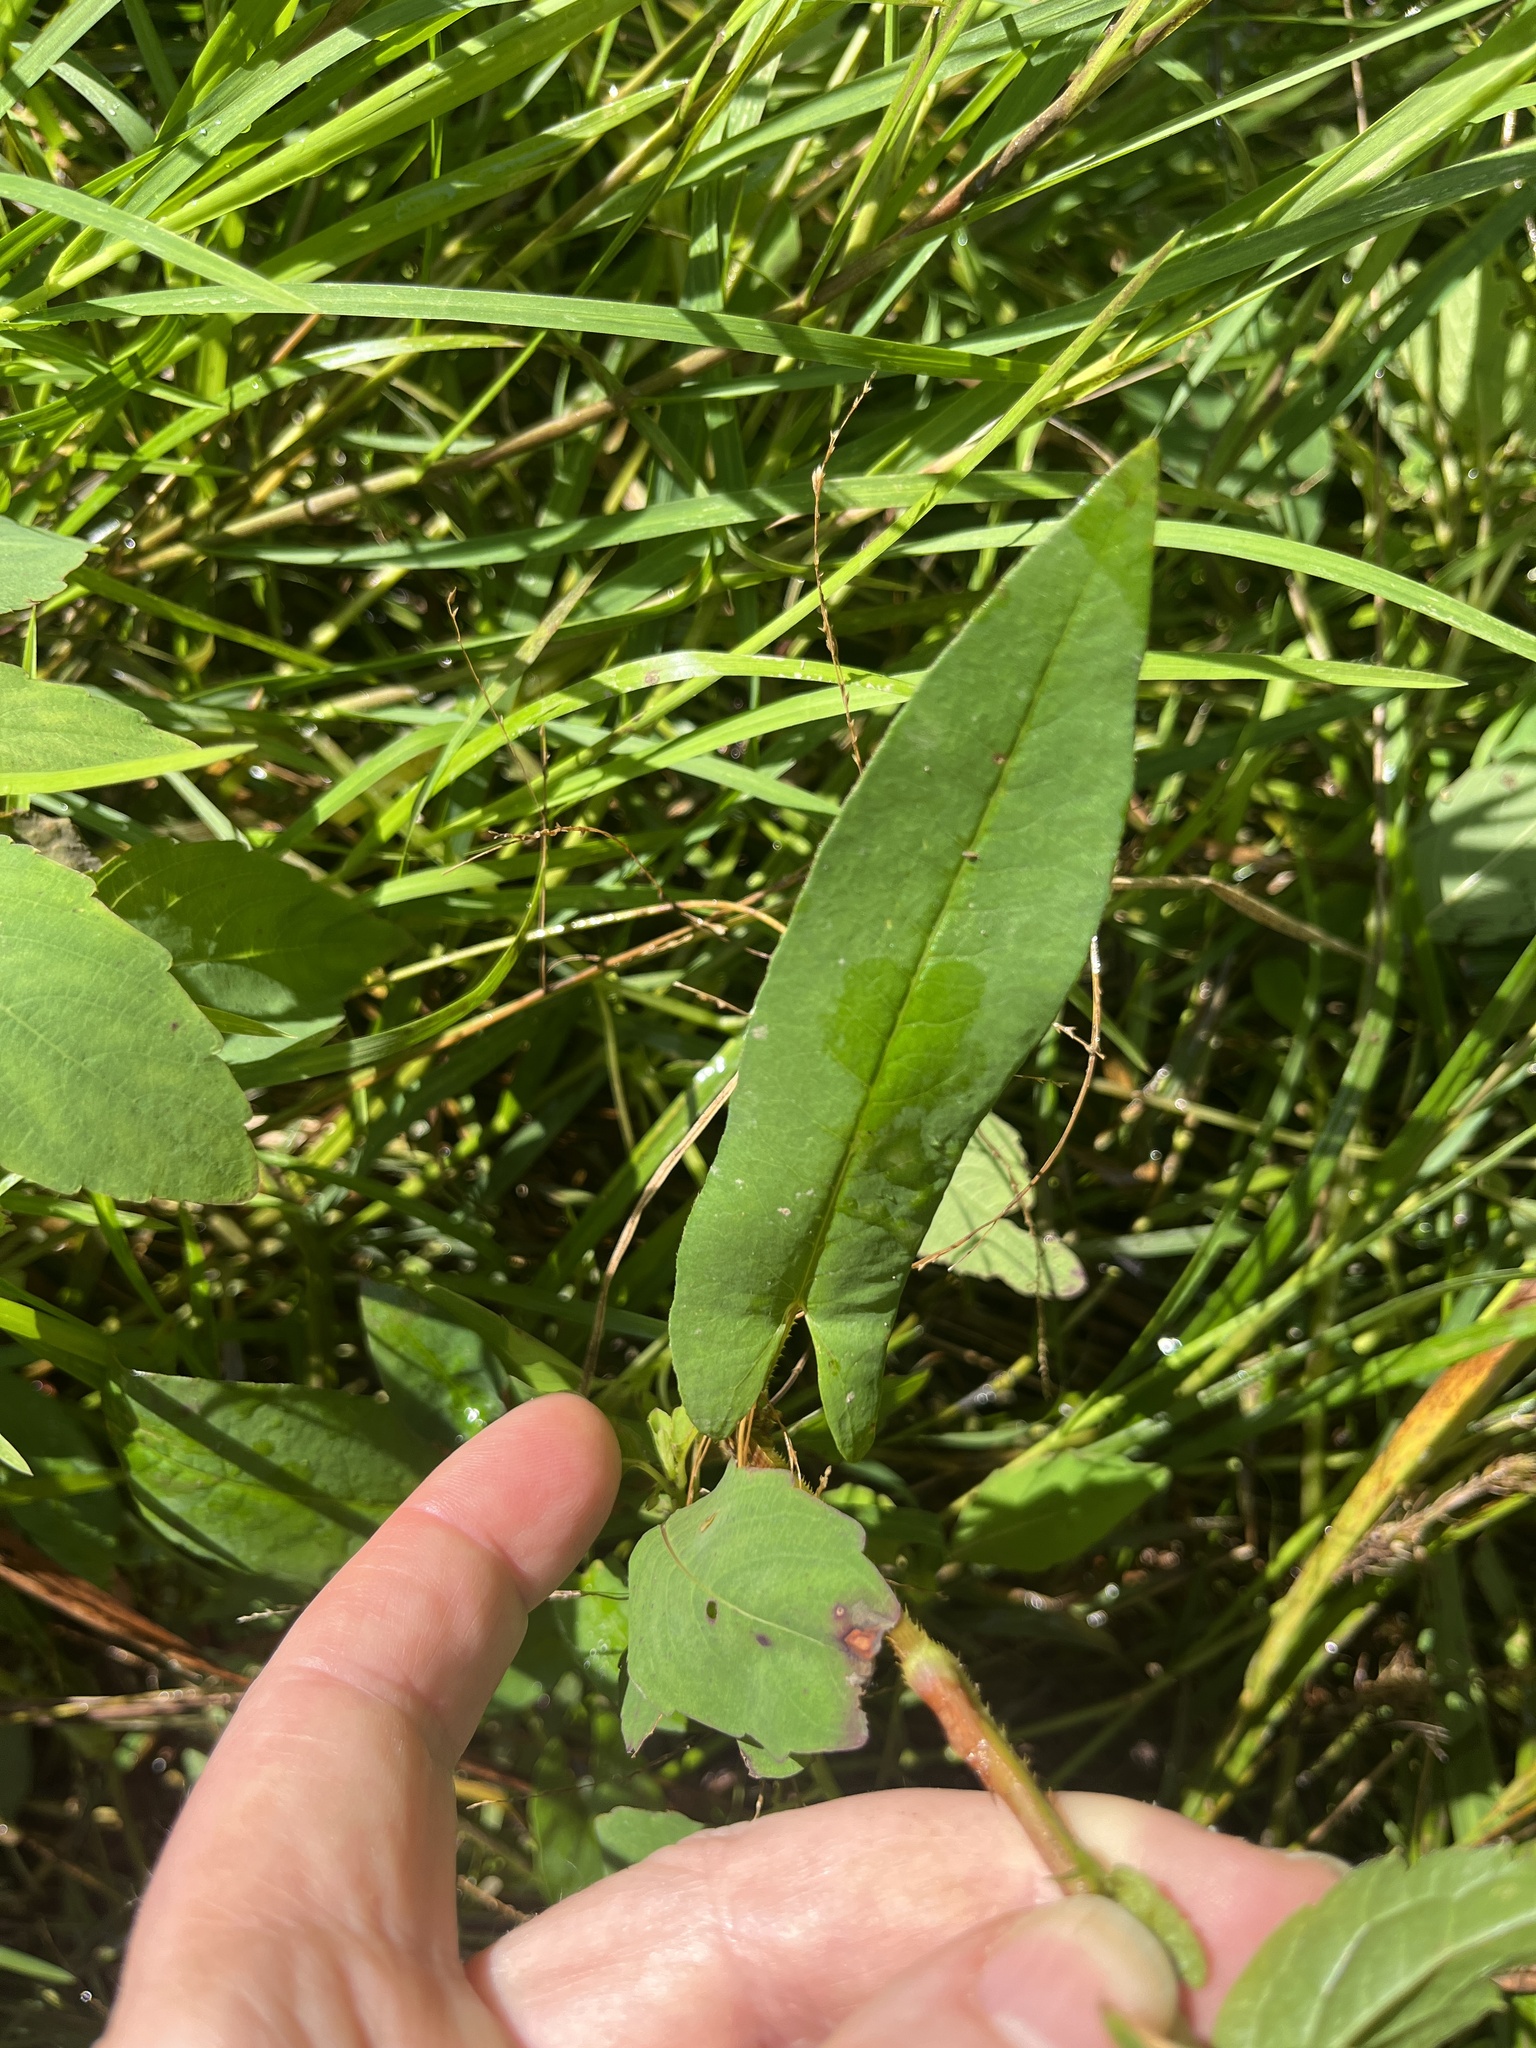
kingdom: Plantae
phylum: Tracheophyta
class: Magnoliopsida
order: Caryophyllales
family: Polygonaceae
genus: Persicaria
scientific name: Persicaria sagittata
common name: American tearthumb
